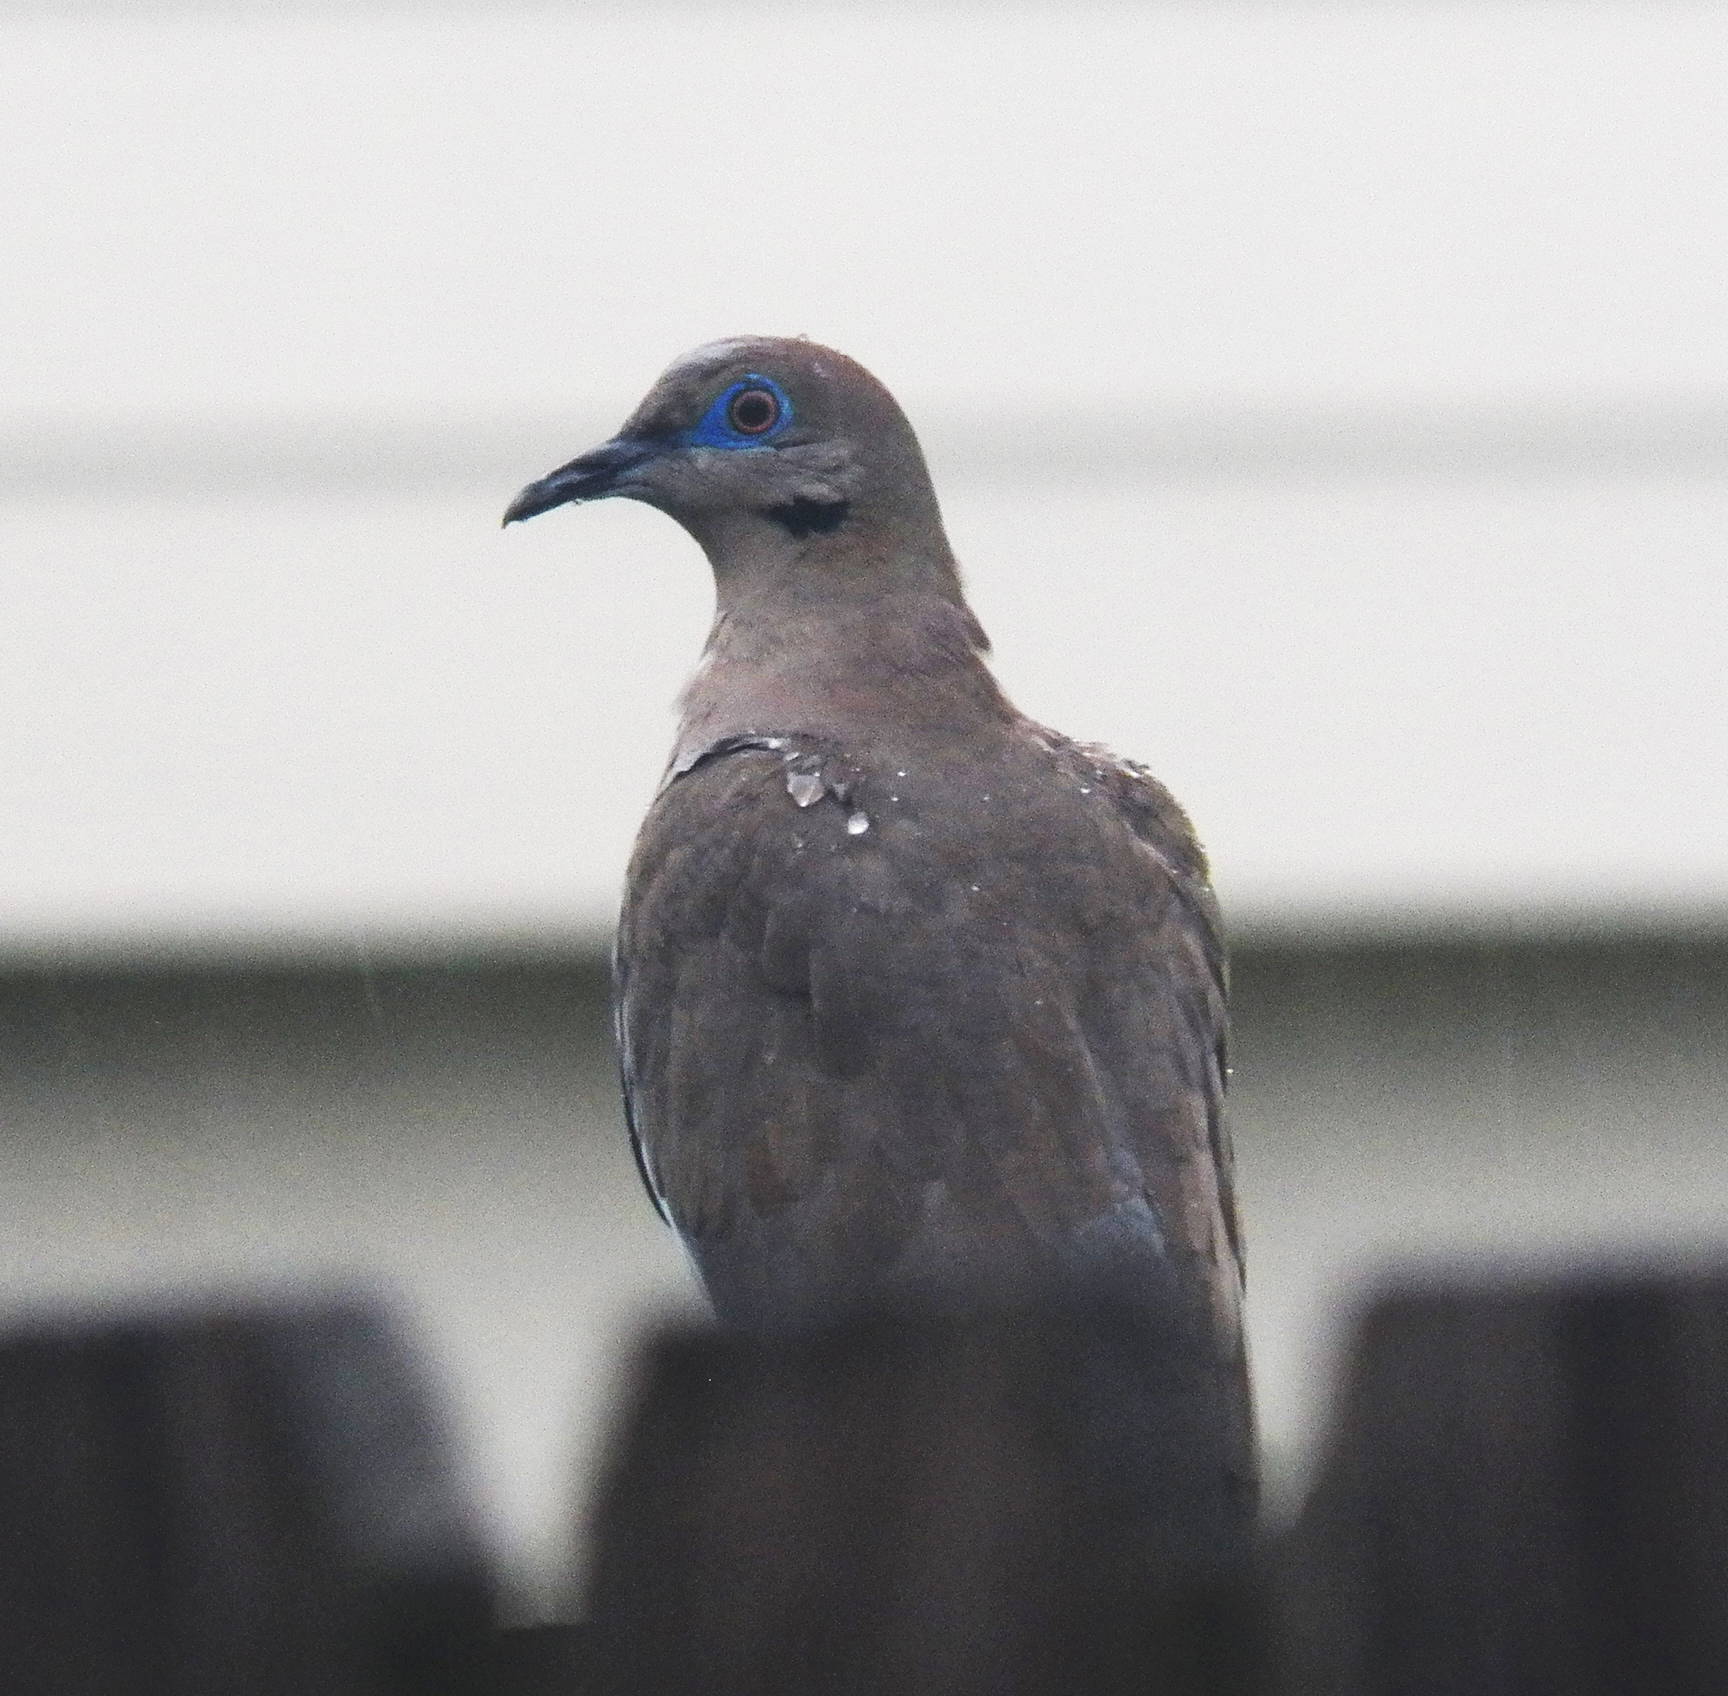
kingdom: Animalia
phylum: Chordata
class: Aves
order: Columbiformes
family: Columbidae
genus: Zenaida
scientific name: Zenaida asiatica
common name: White-winged dove
